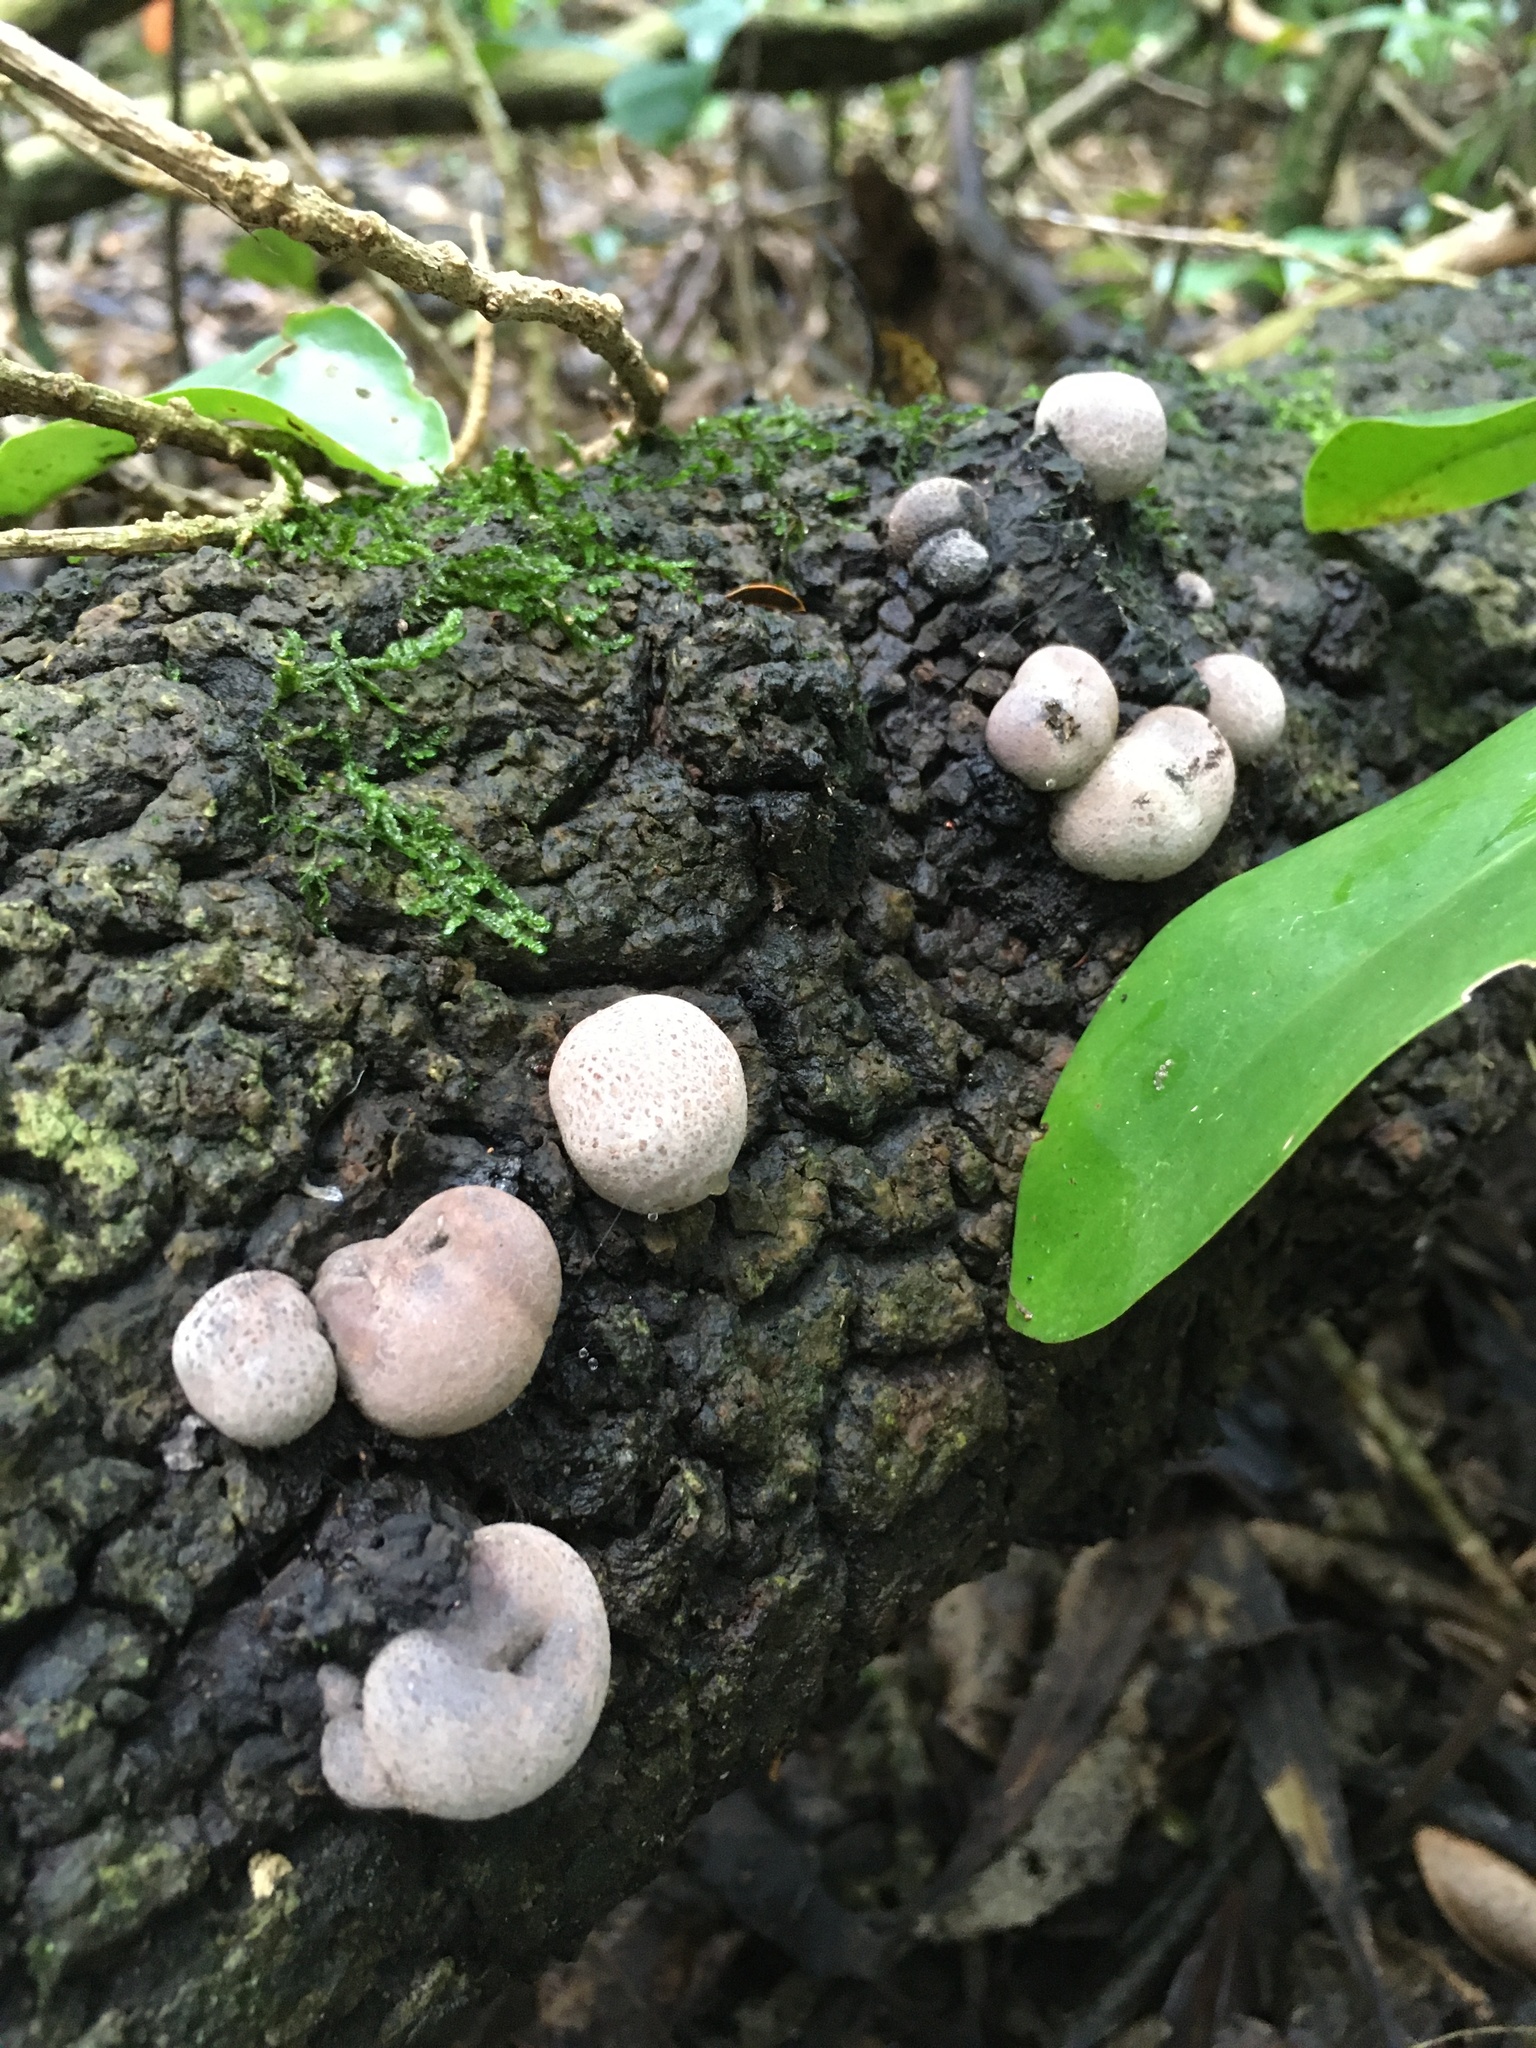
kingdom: Fungi
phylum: Ascomycota
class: Sordariomycetes
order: Xylariales
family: Hypoxylaceae
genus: Daldinia
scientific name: Daldinia
